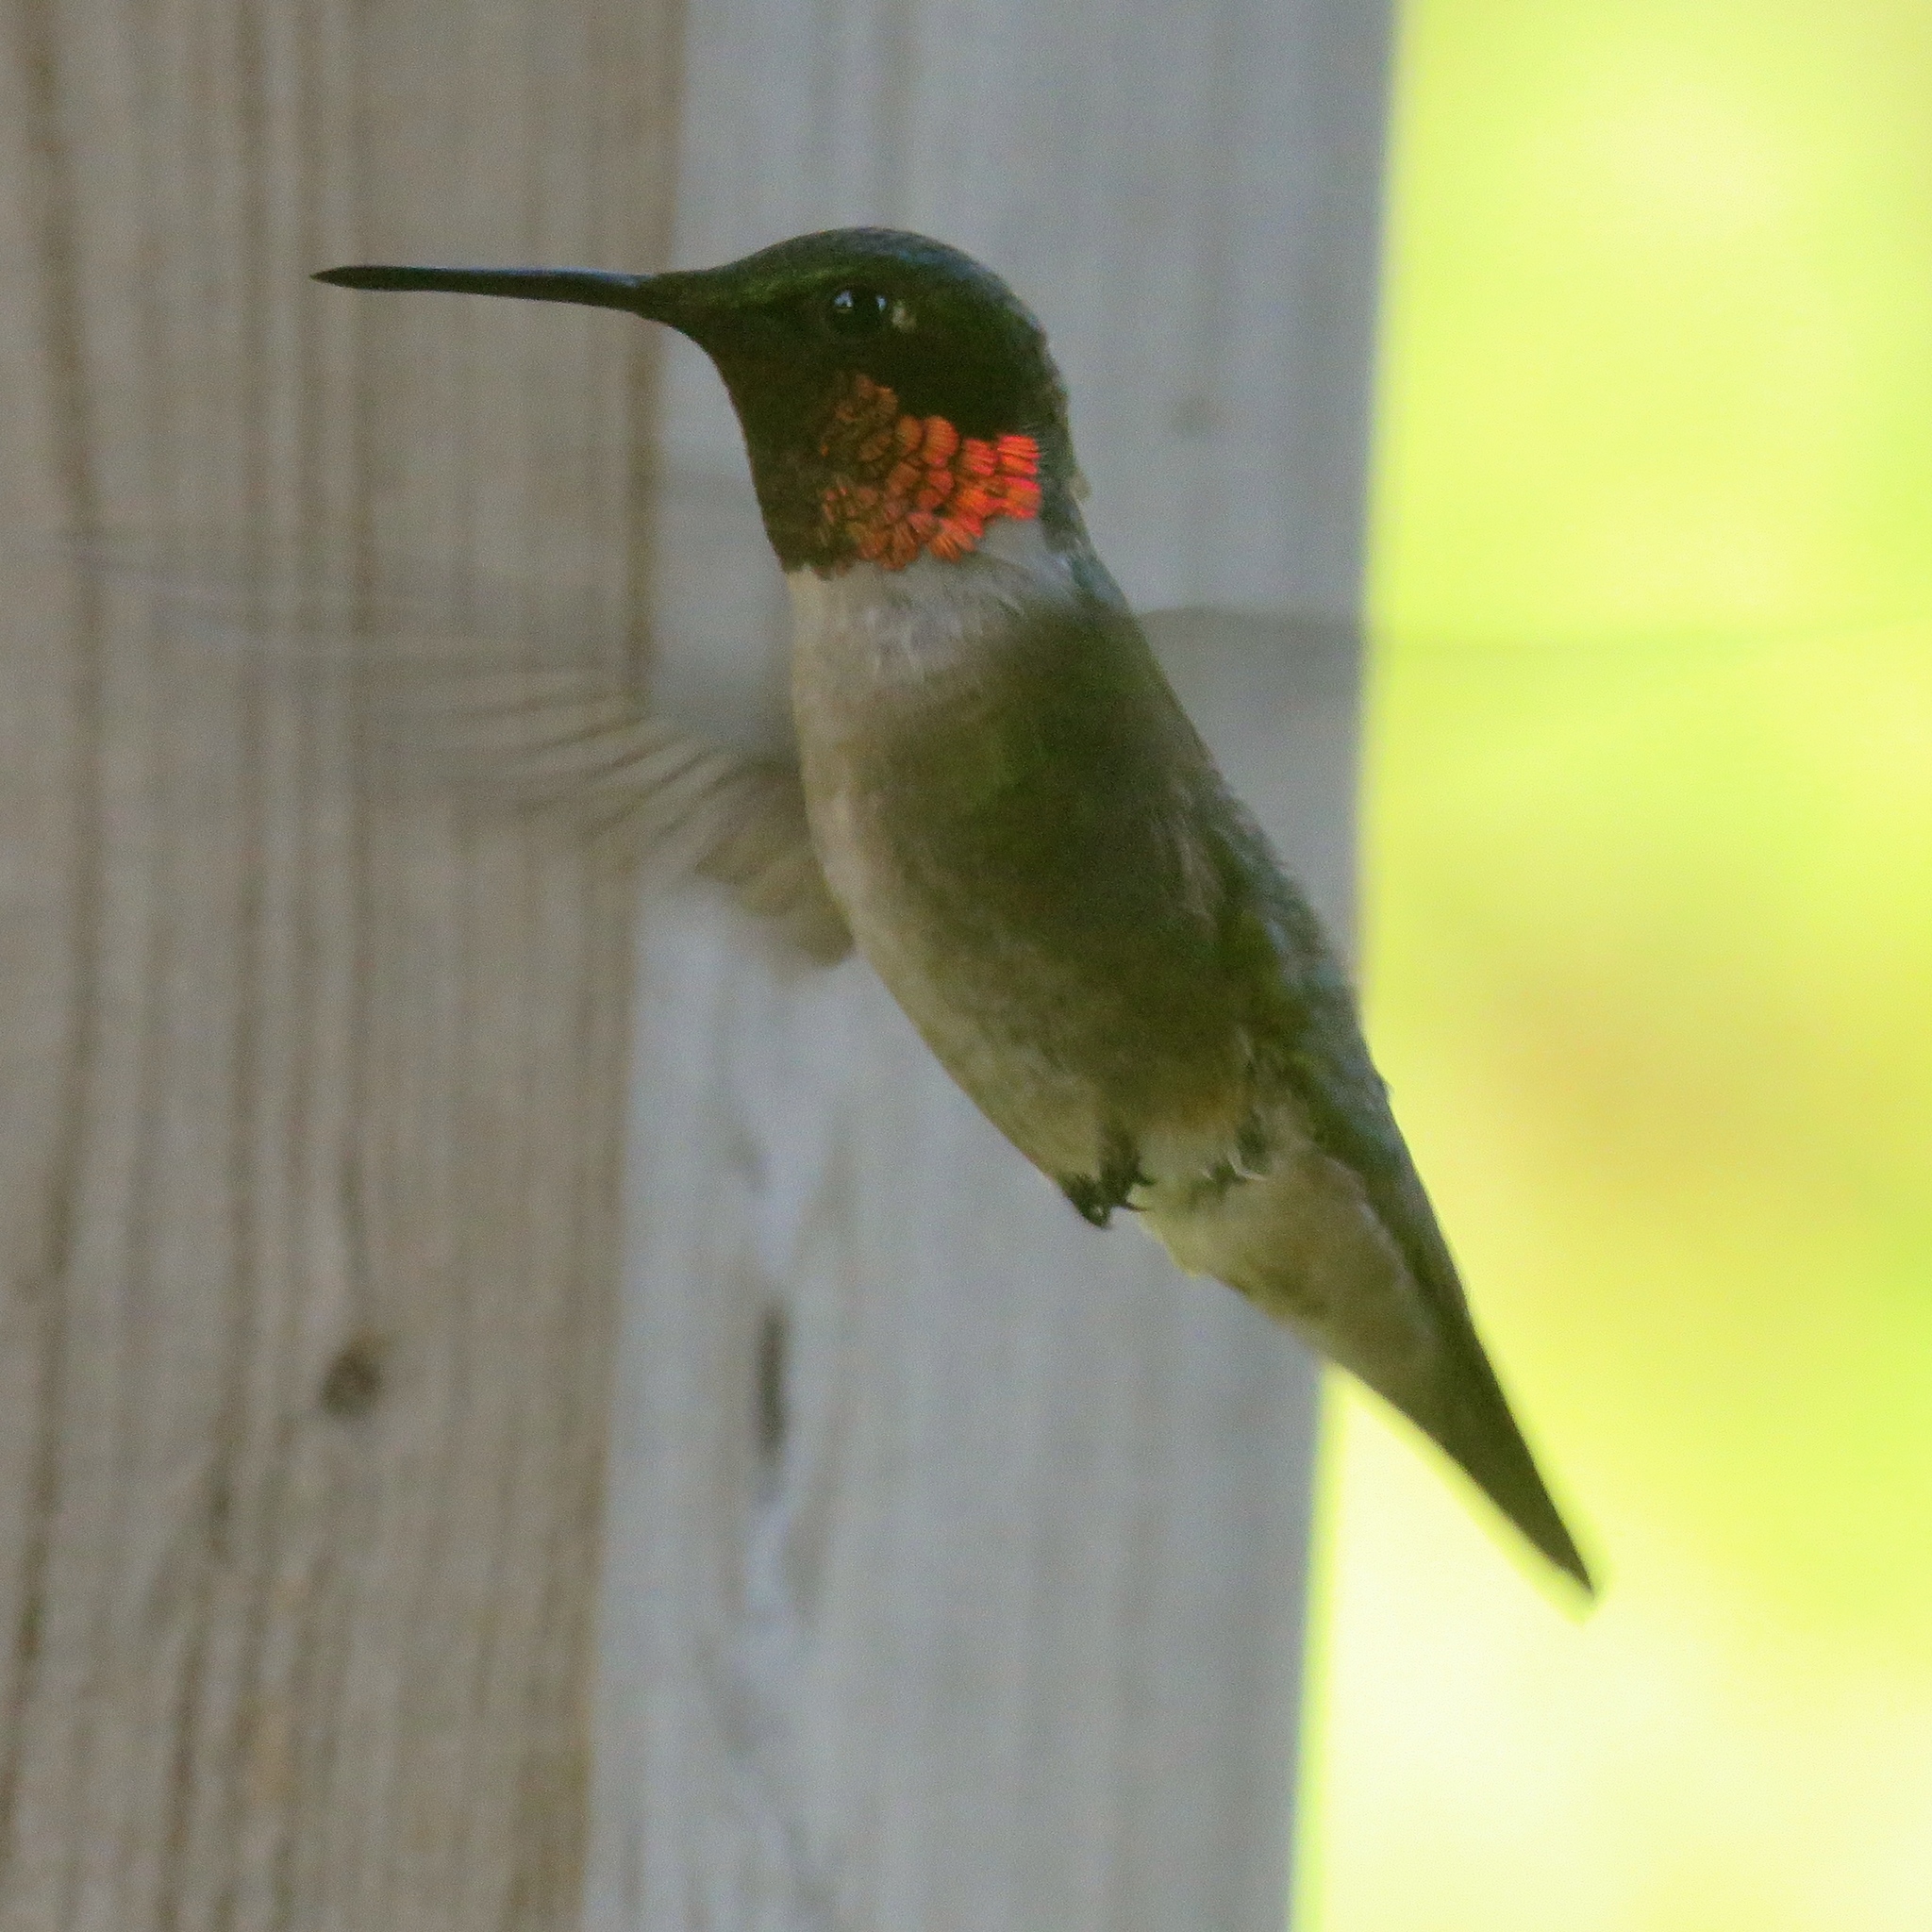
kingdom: Animalia
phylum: Chordata
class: Aves
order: Apodiformes
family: Trochilidae
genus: Archilochus
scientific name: Archilochus colubris
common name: Ruby-throated hummingbird
